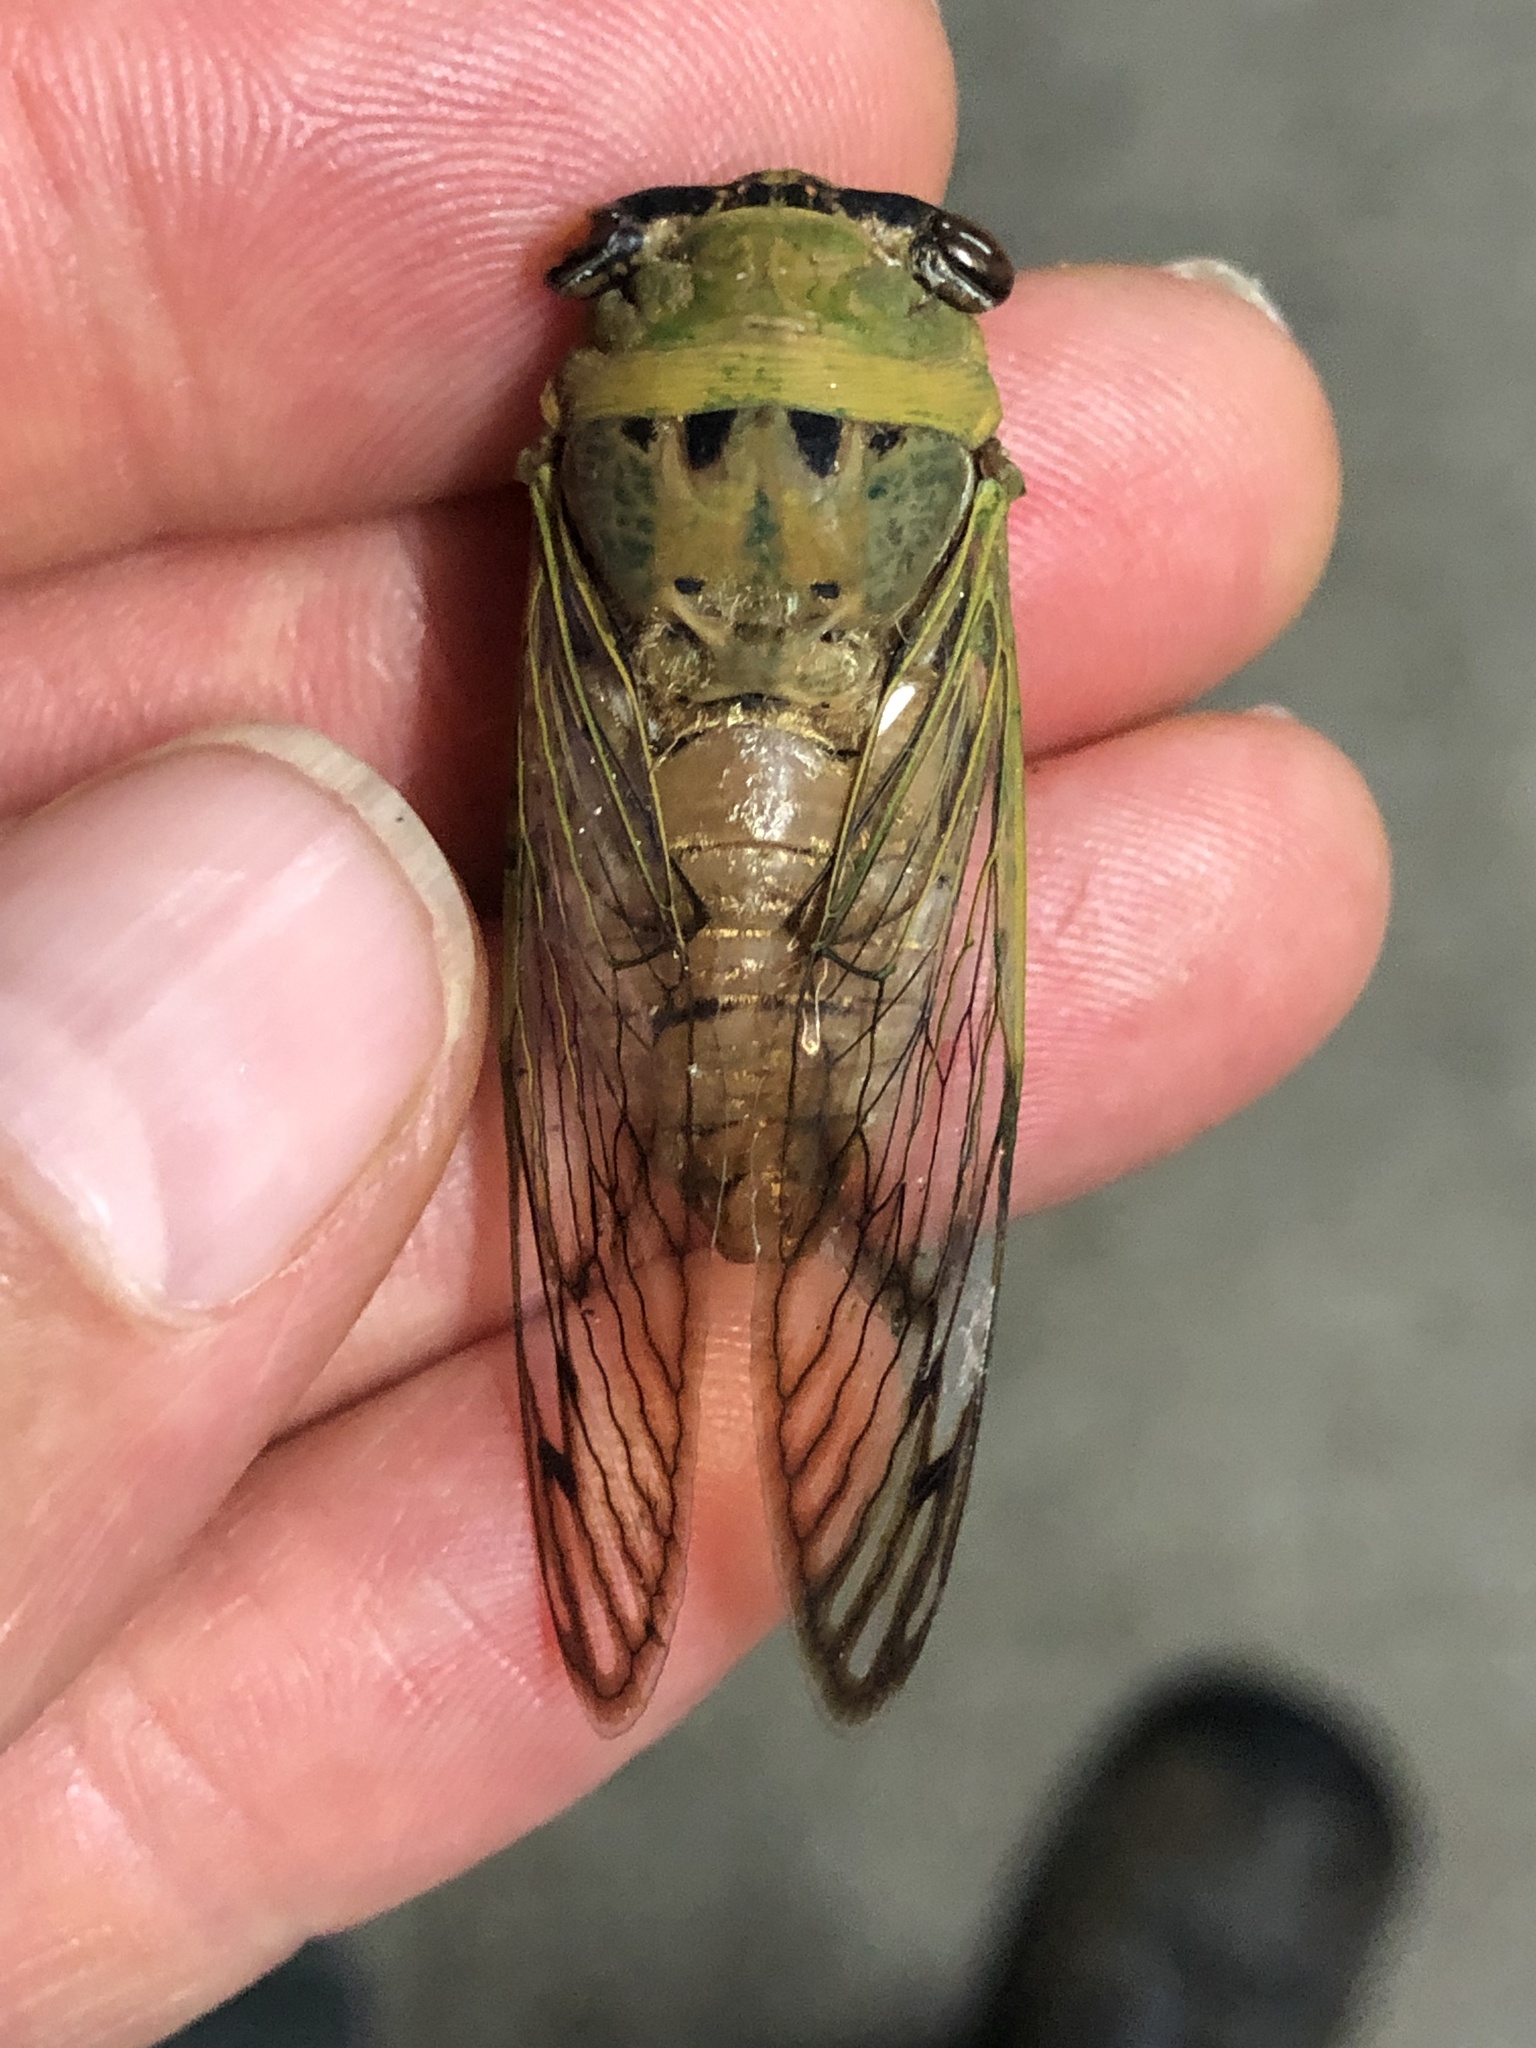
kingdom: Animalia
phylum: Arthropoda
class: Insecta
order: Hemiptera
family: Cicadidae
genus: Neotibicen
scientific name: Neotibicen superbus
